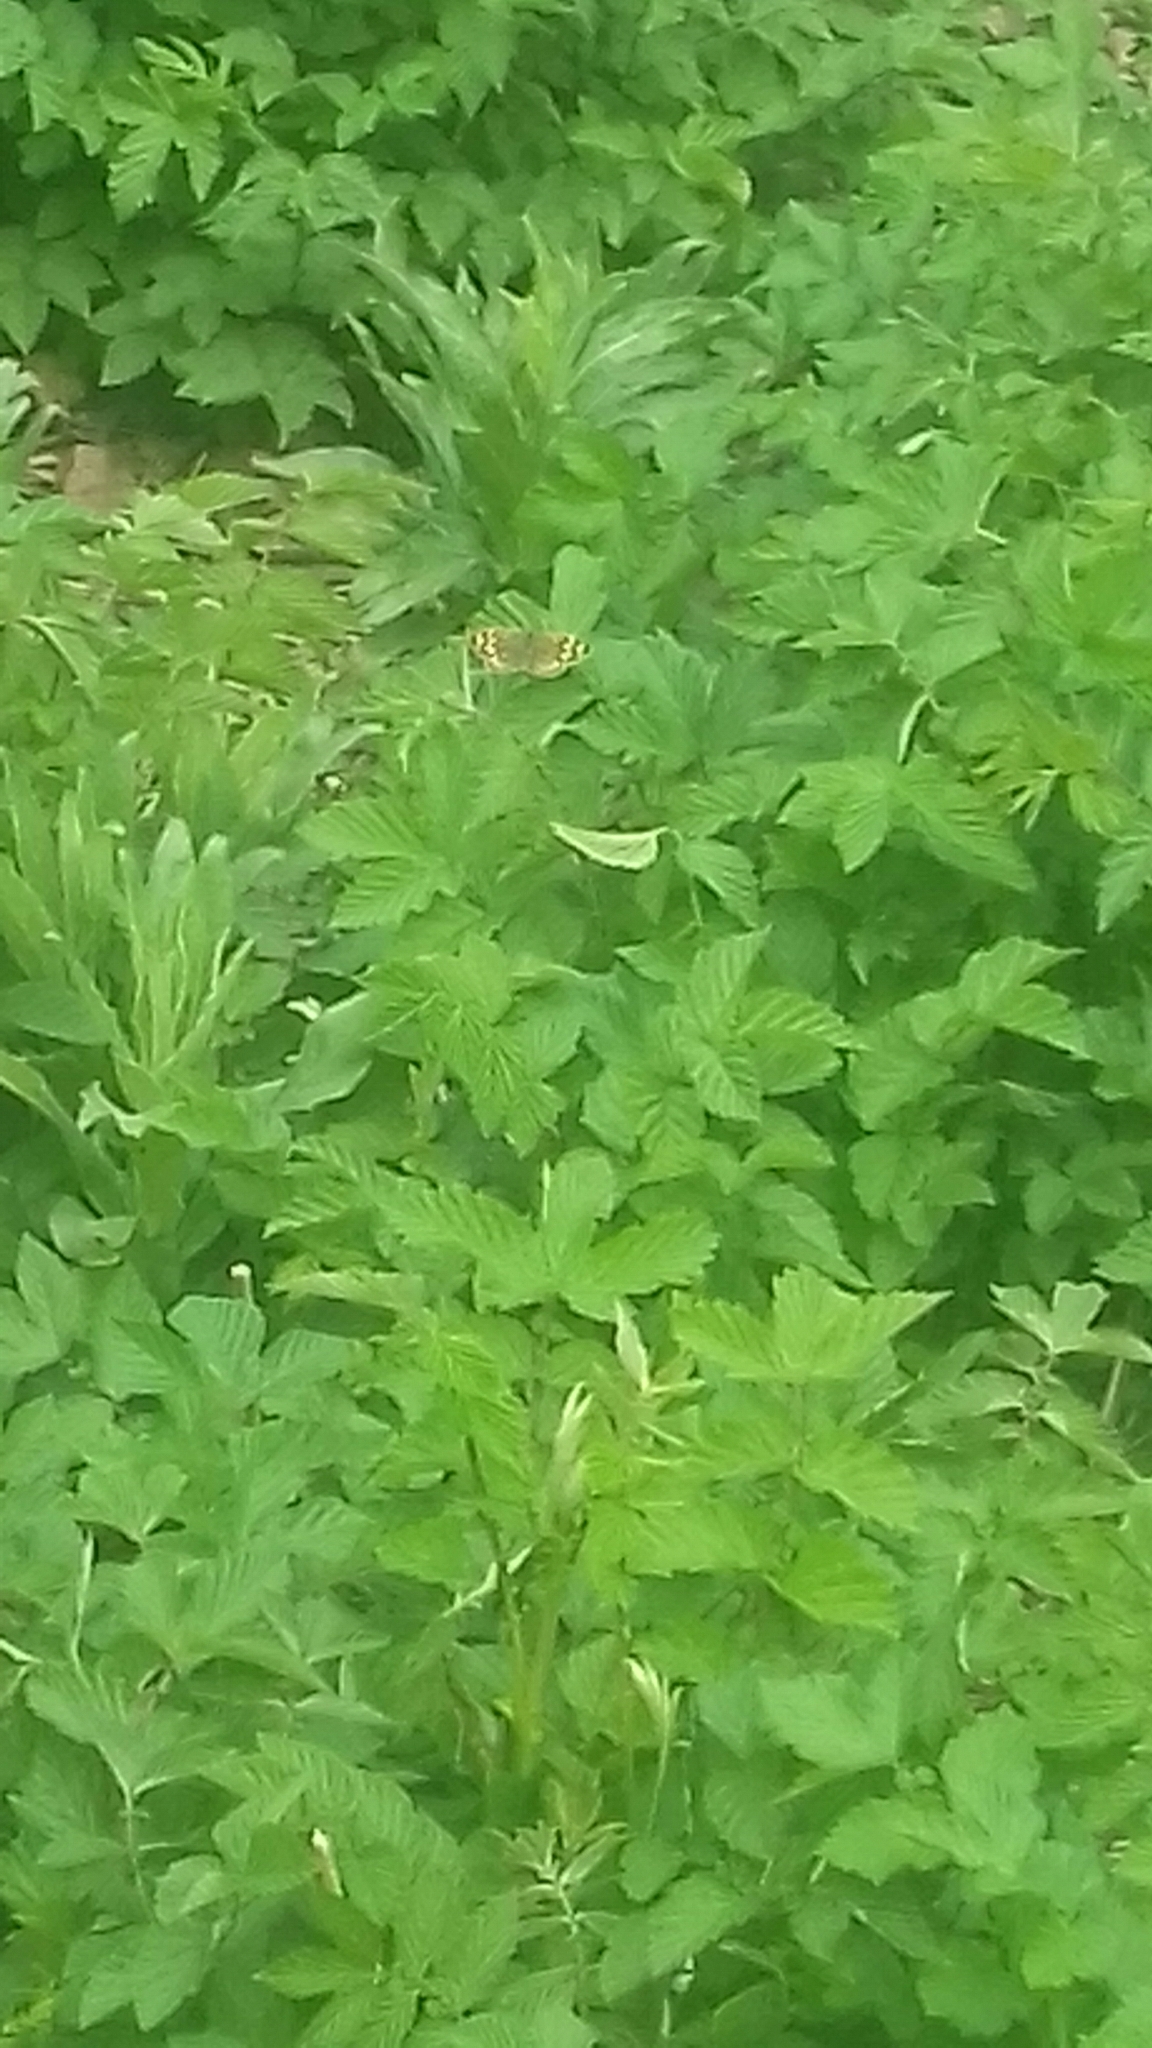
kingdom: Animalia
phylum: Arthropoda
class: Insecta
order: Lepidoptera
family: Nymphalidae
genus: Pararge
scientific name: Pararge aegeria
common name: Speckled wood
